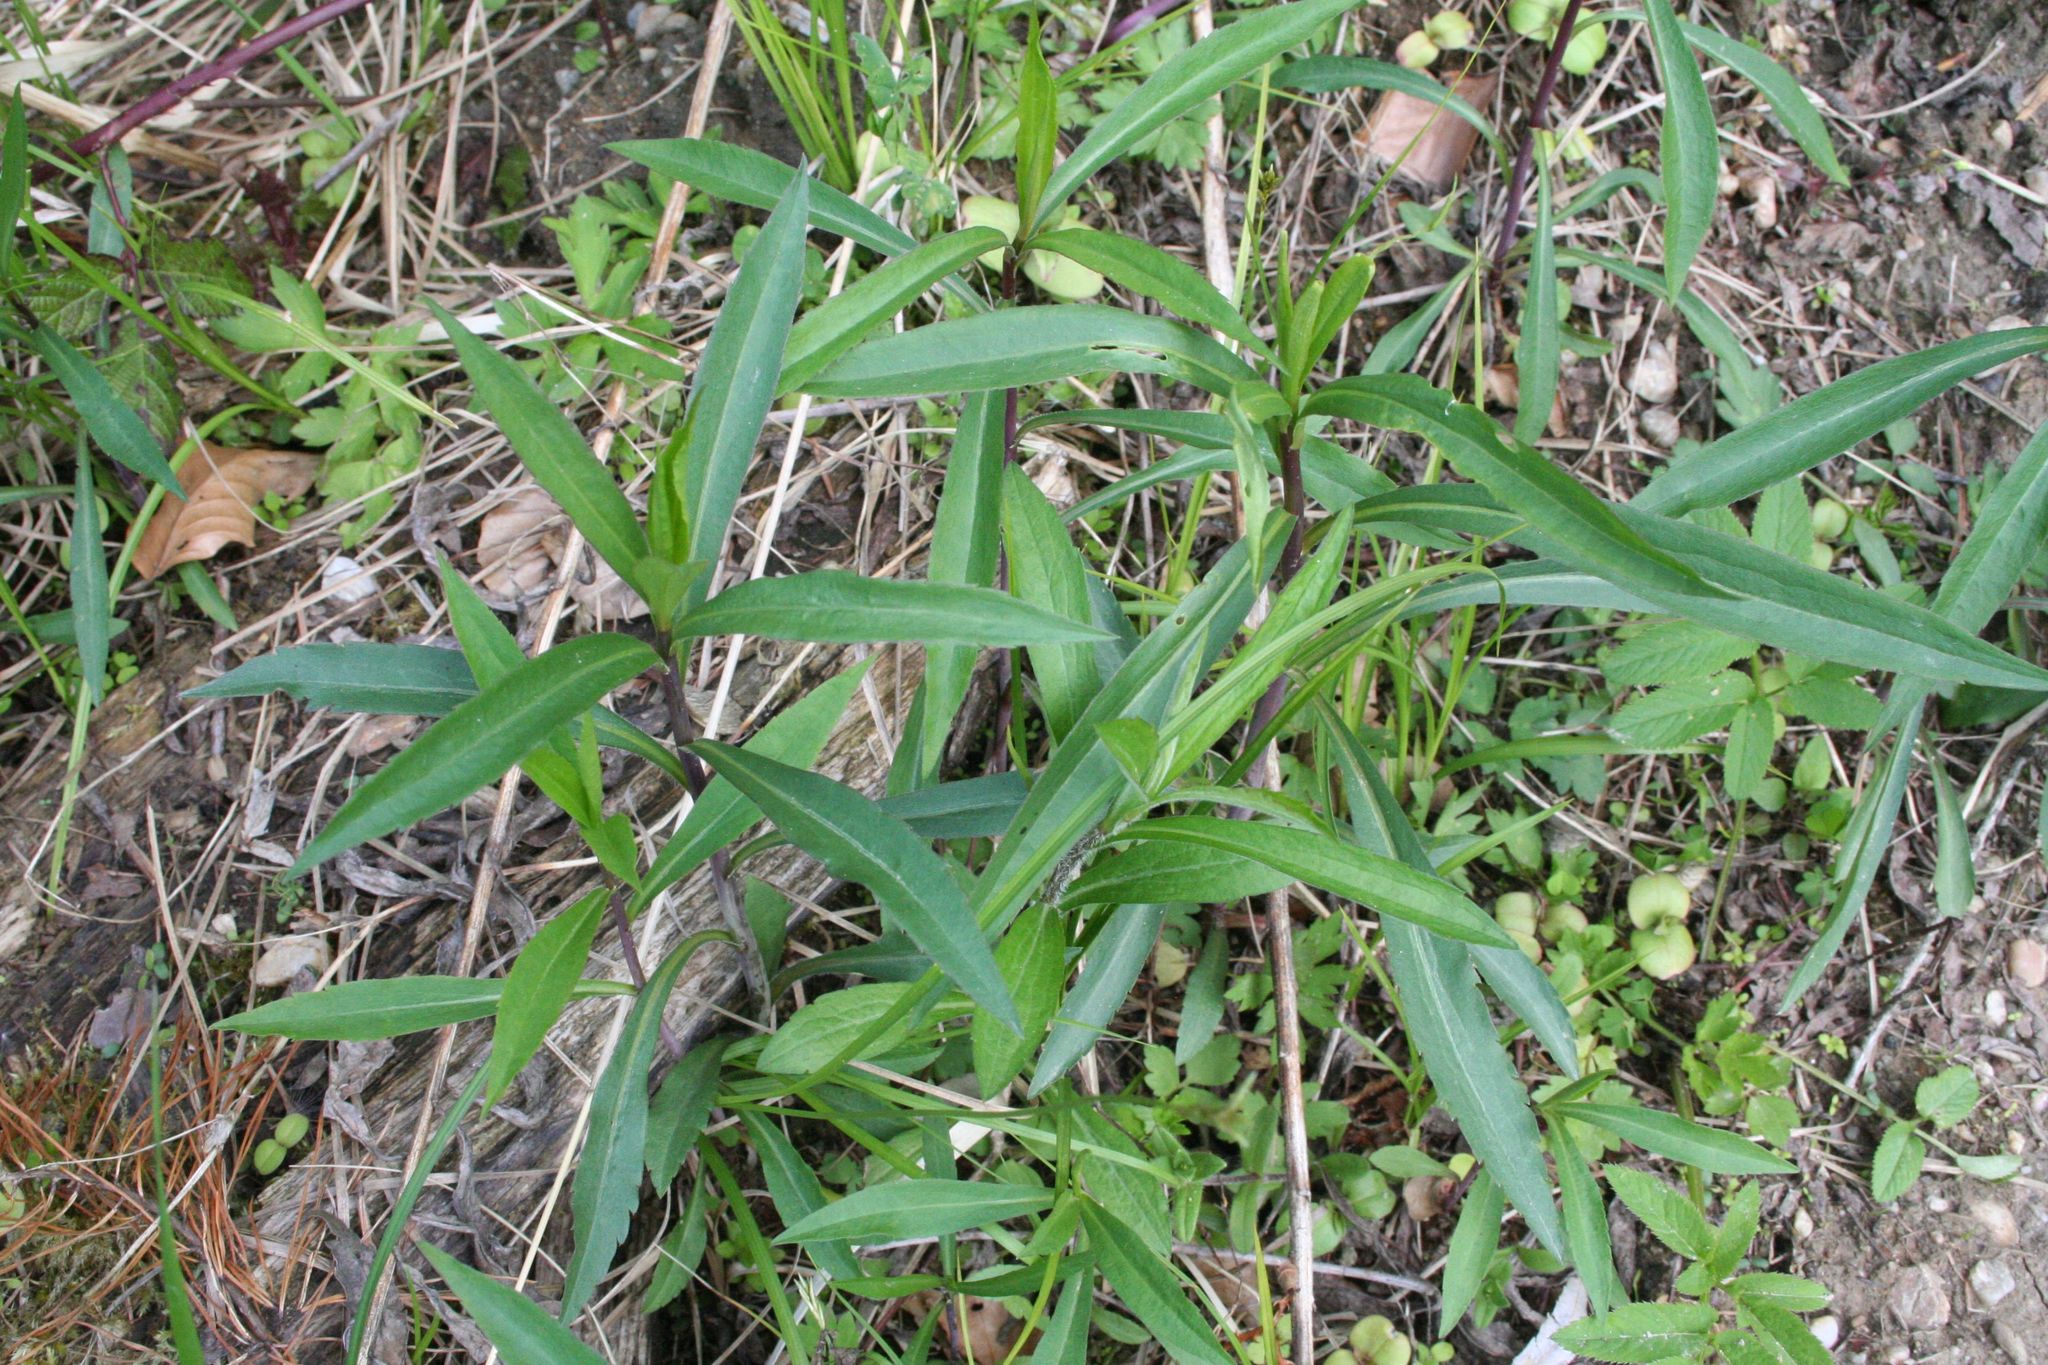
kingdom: Plantae
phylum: Tracheophyta
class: Magnoliopsida
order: Asterales
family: Asteraceae
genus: Solidago
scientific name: Solidago gigantea
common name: Giant goldenrod
